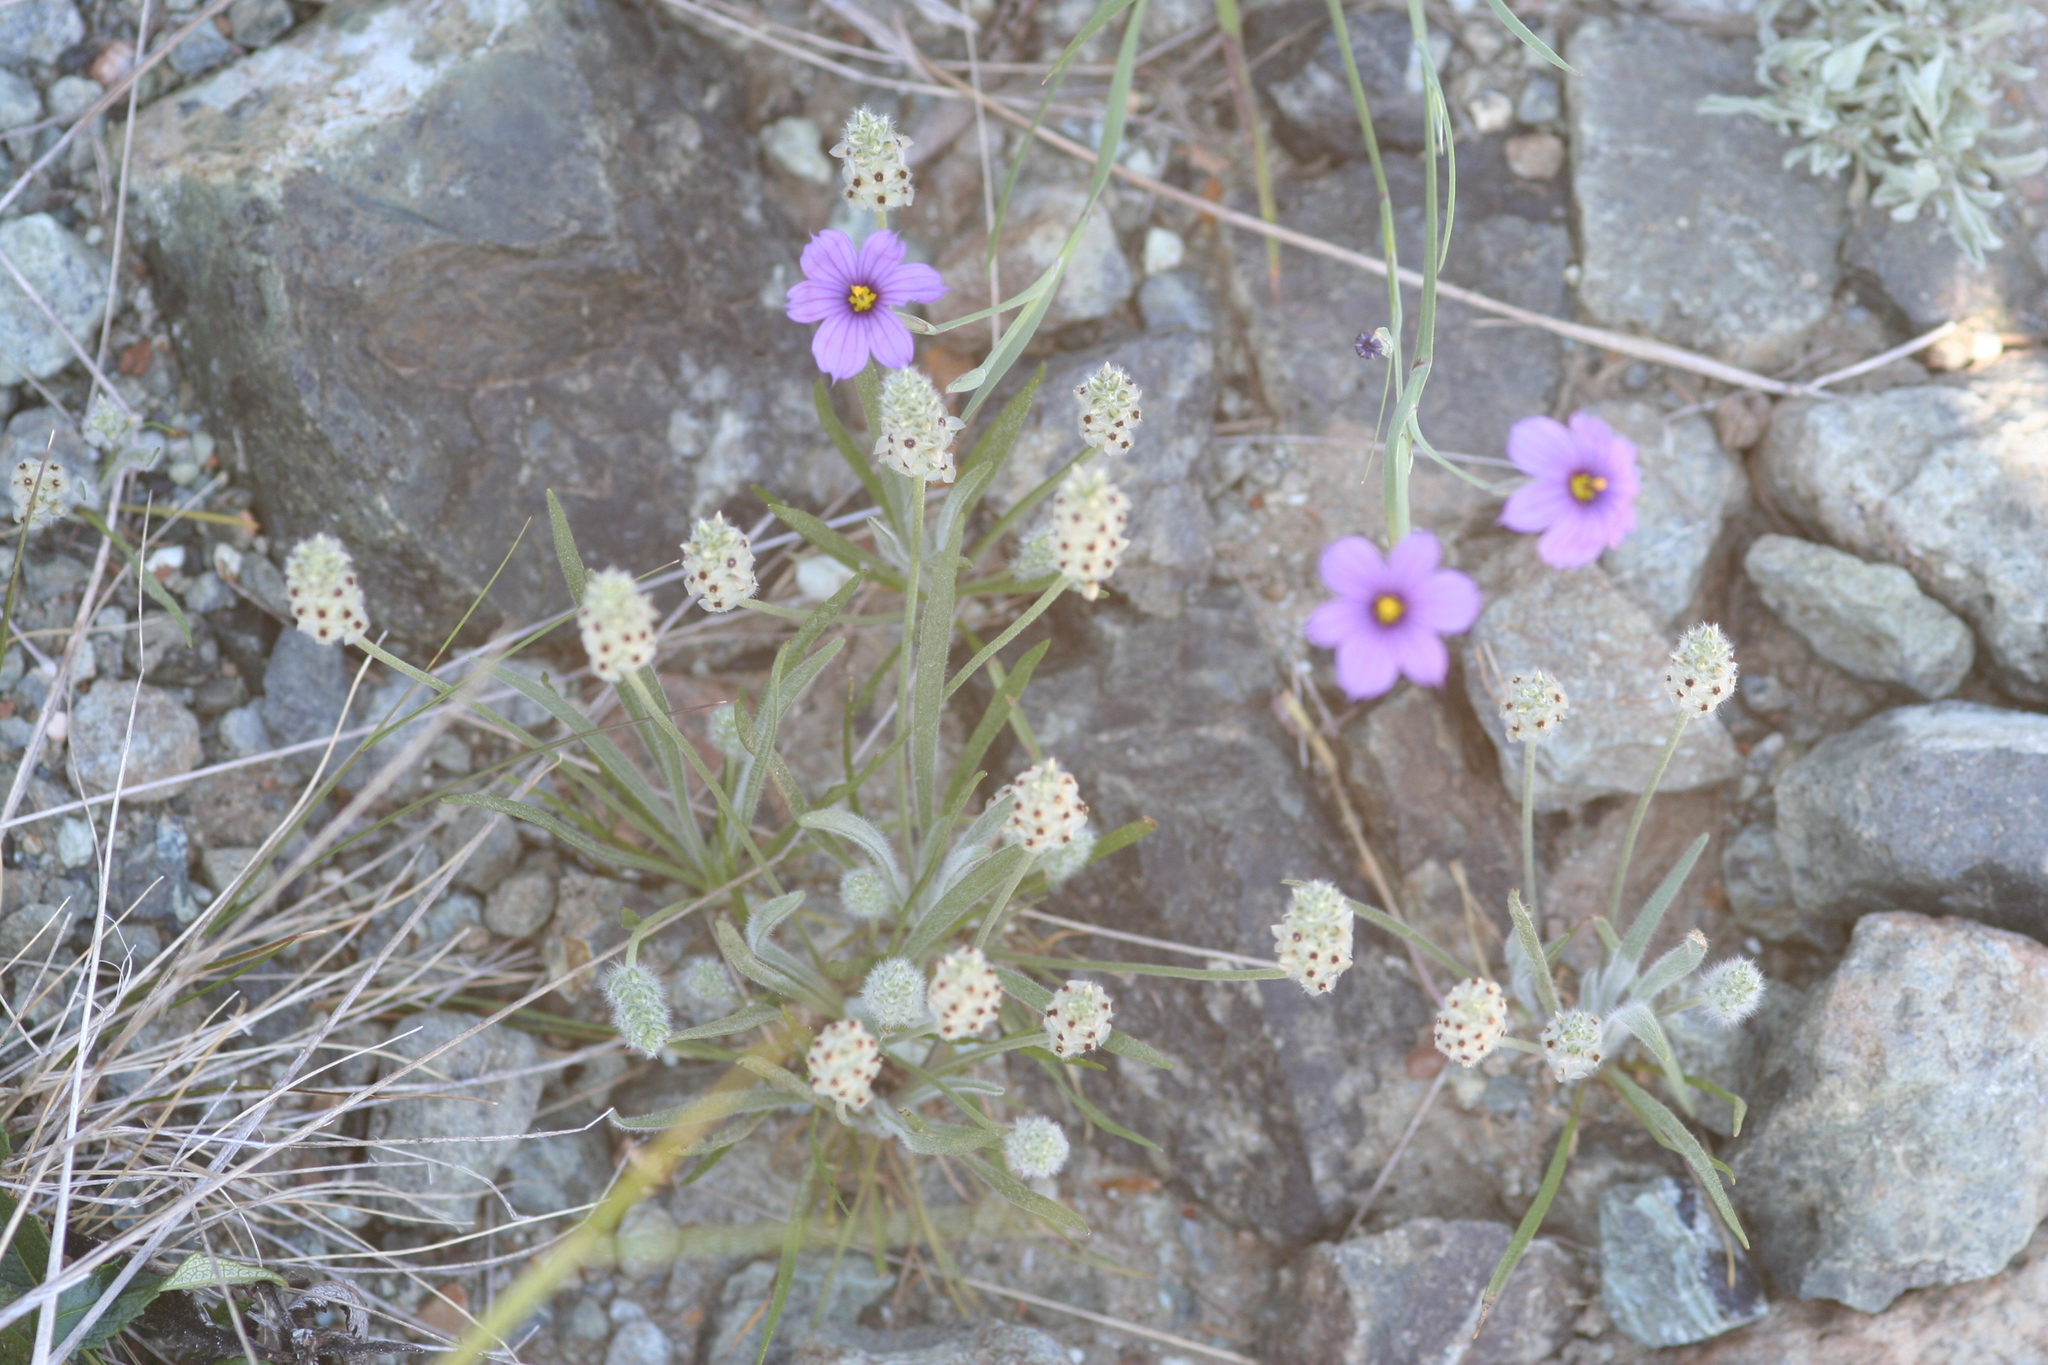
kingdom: Plantae
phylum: Tracheophyta
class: Magnoliopsida
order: Lamiales
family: Plantaginaceae
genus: Plantago
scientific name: Plantago erecta
